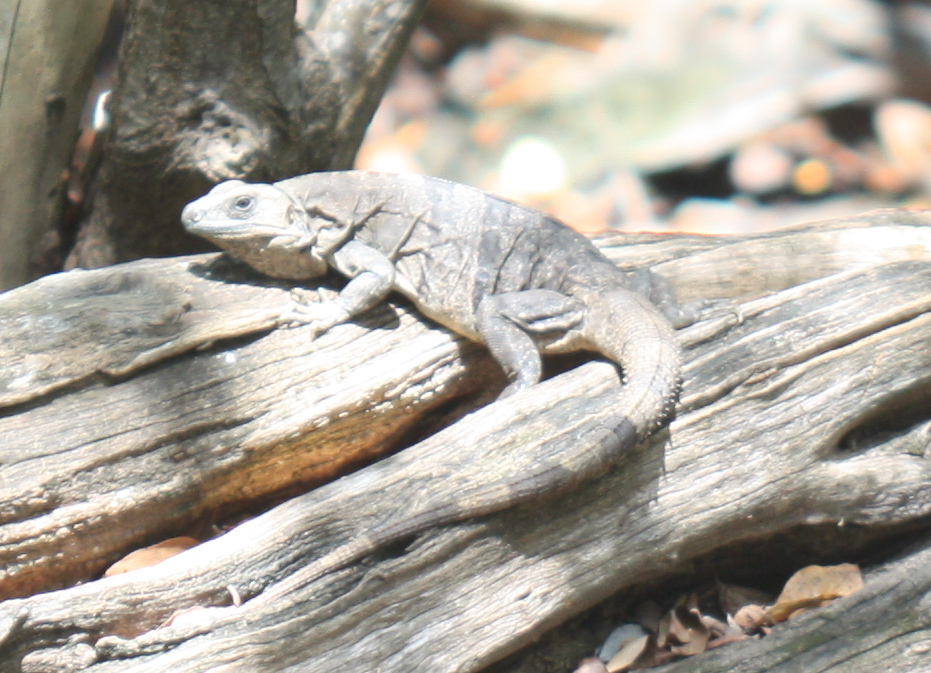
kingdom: Animalia
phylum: Chordata
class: Squamata
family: Iguanidae
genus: Ctenosaura
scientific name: Ctenosaura similis
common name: Black spiny-tailed iguana
